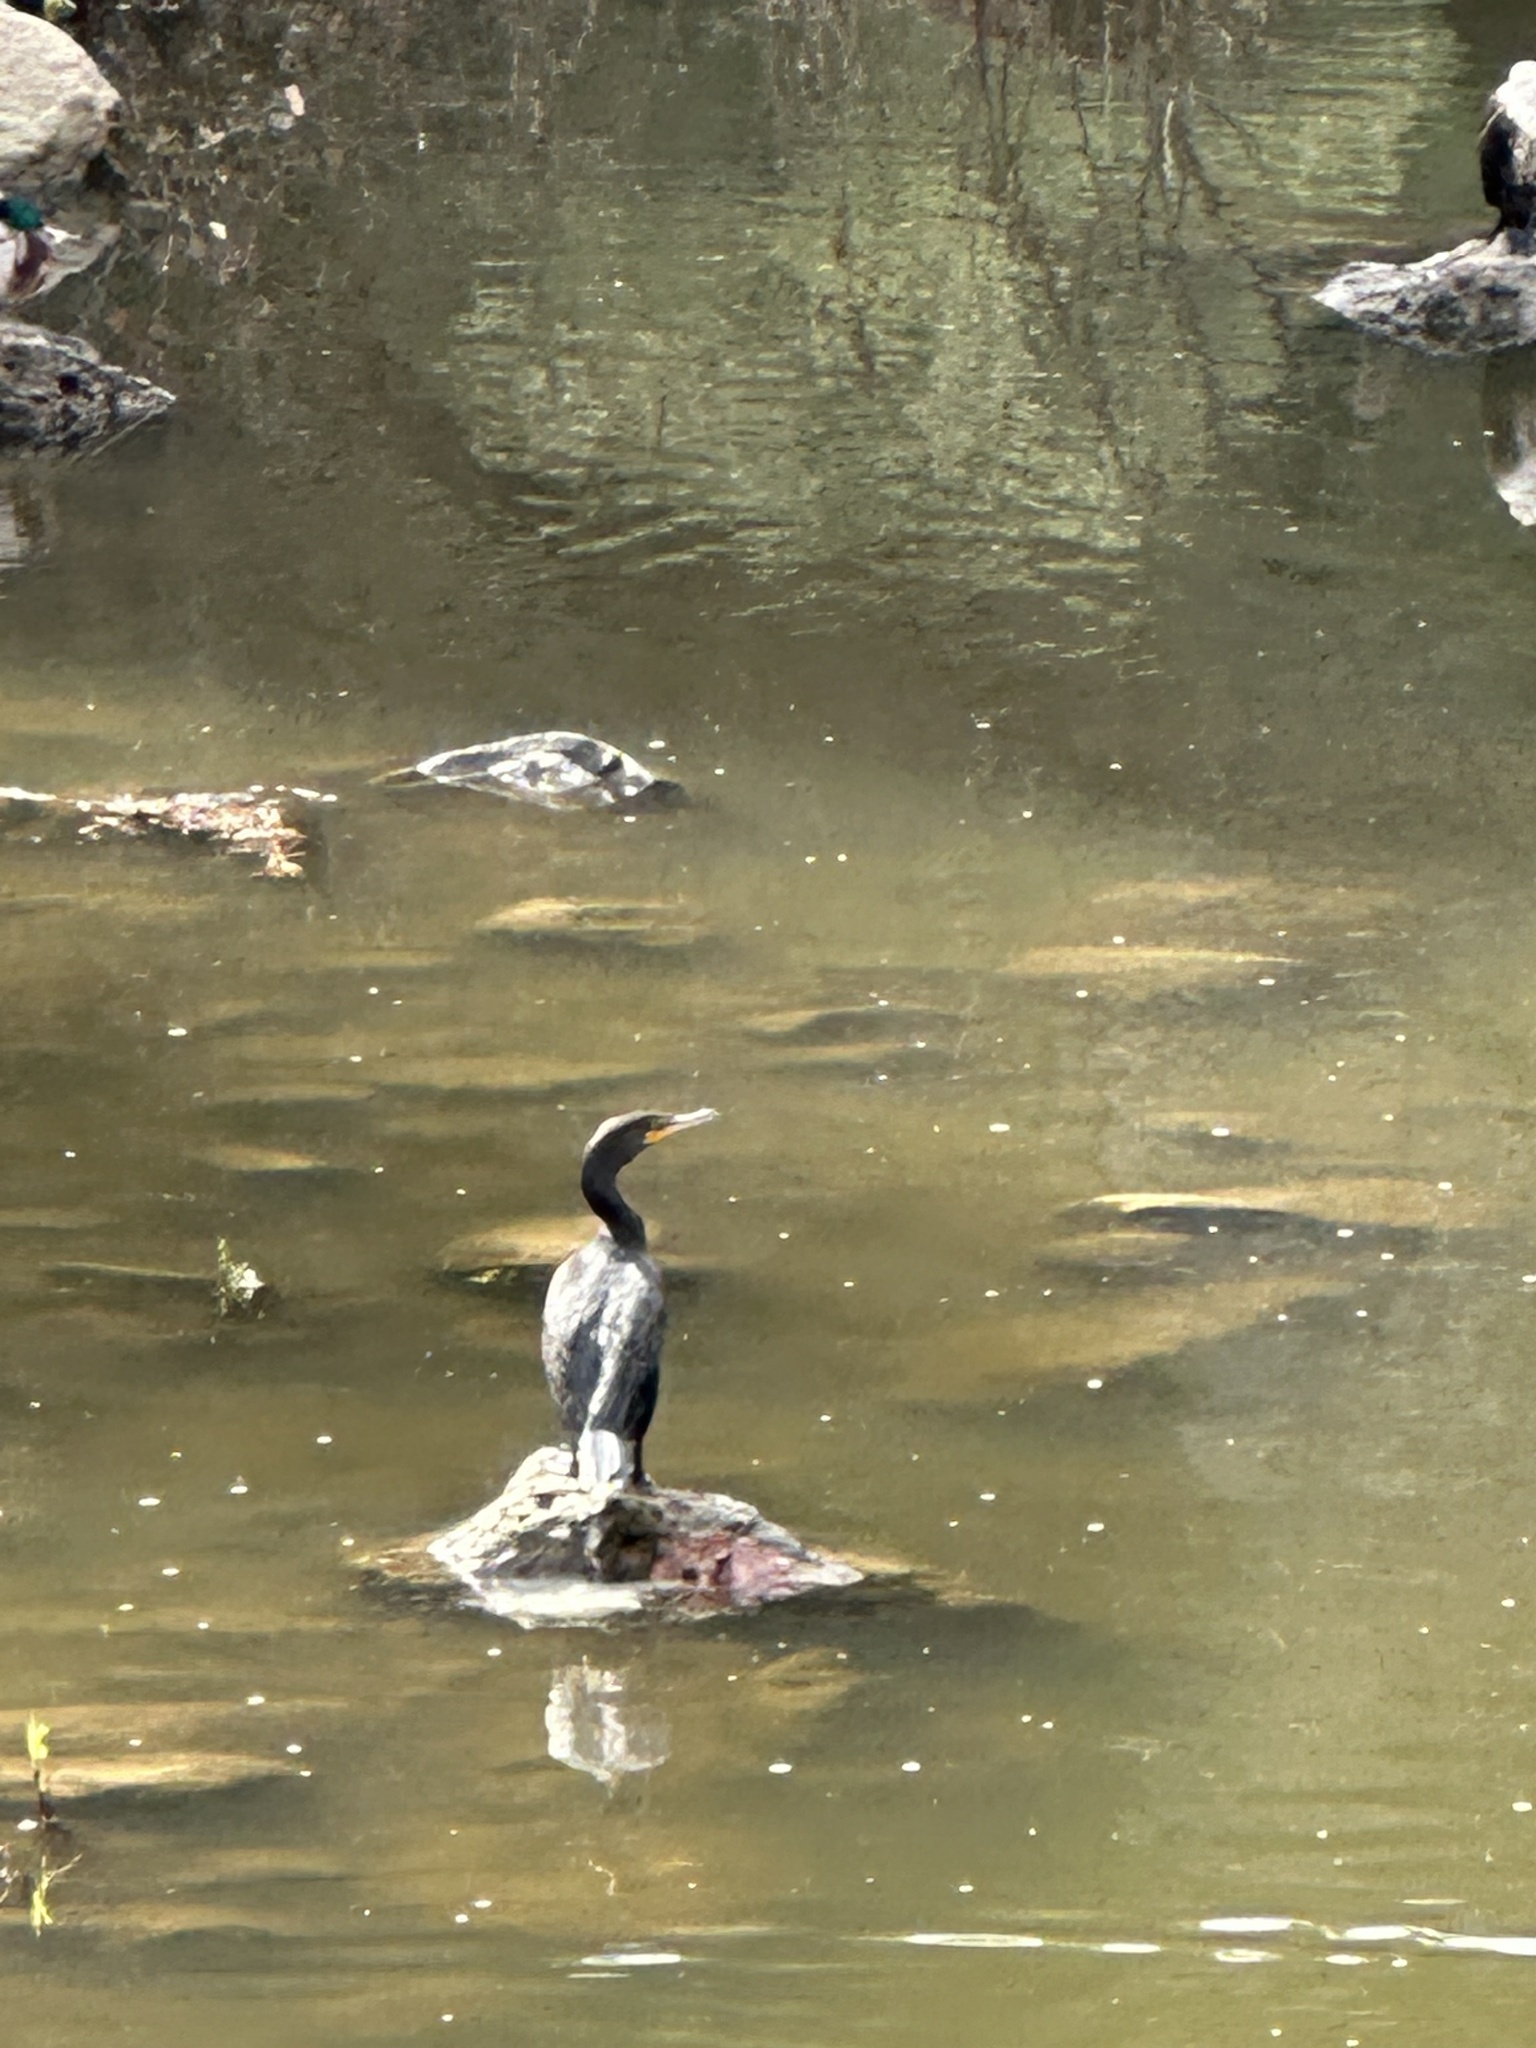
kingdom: Animalia
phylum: Chordata
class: Aves
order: Suliformes
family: Phalacrocoracidae
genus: Phalacrocorax
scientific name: Phalacrocorax auritus
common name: Double-crested cormorant
